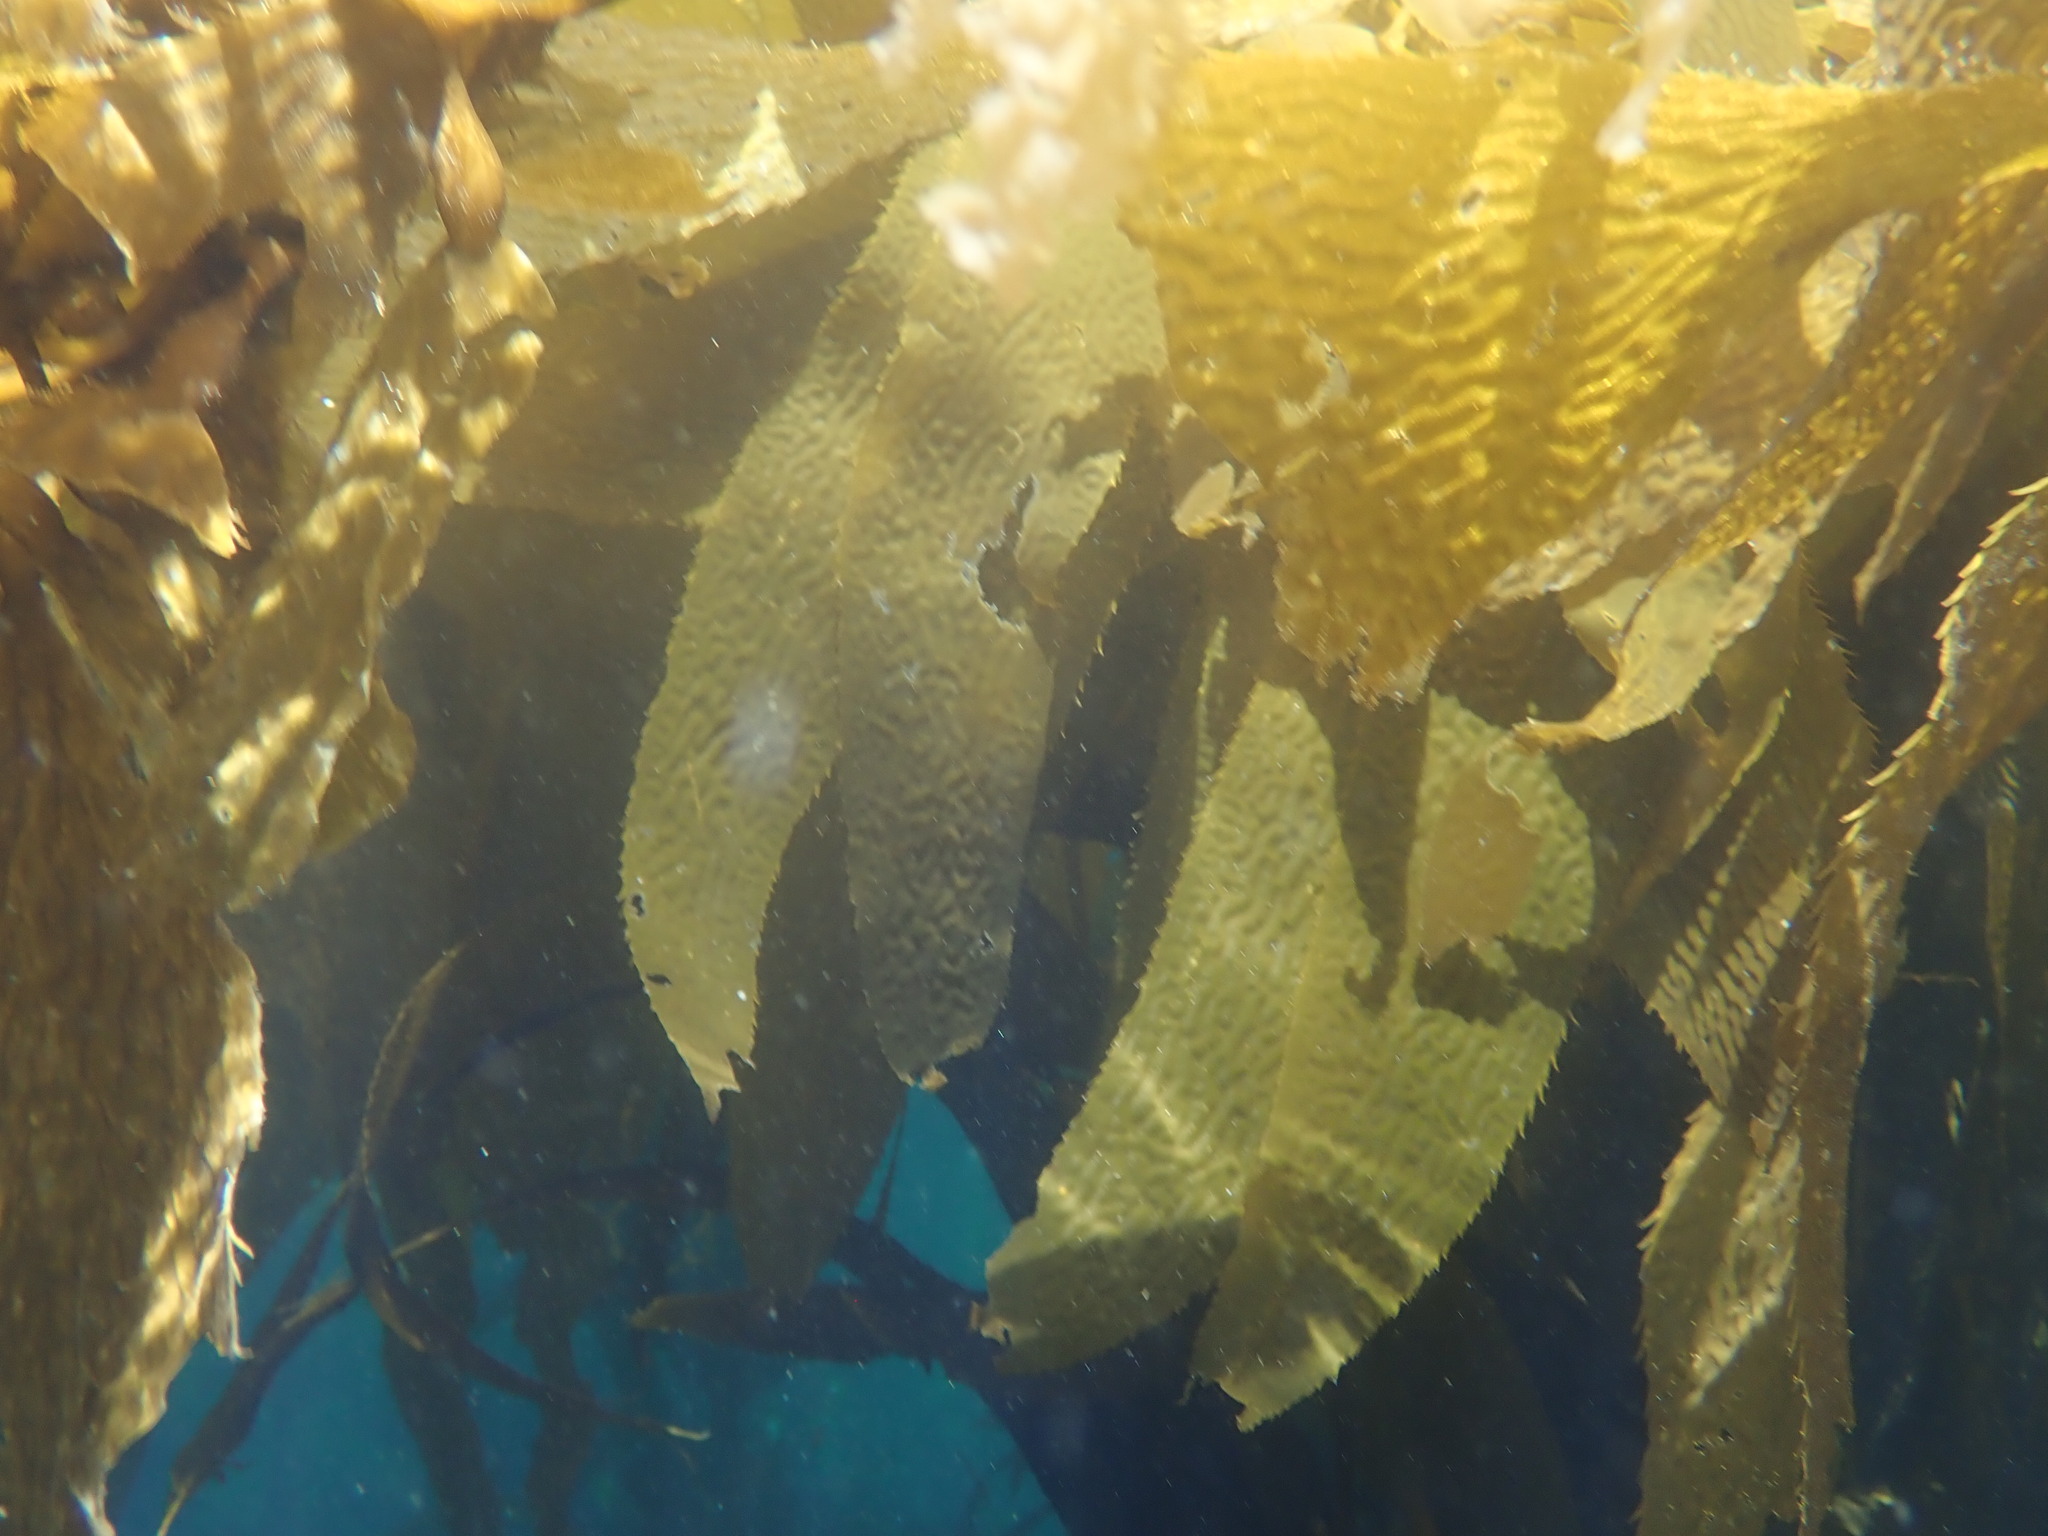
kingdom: Chromista
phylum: Ochrophyta
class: Phaeophyceae
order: Laminariales
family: Laminariaceae
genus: Macrocystis
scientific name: Macrocystis pyrifera
